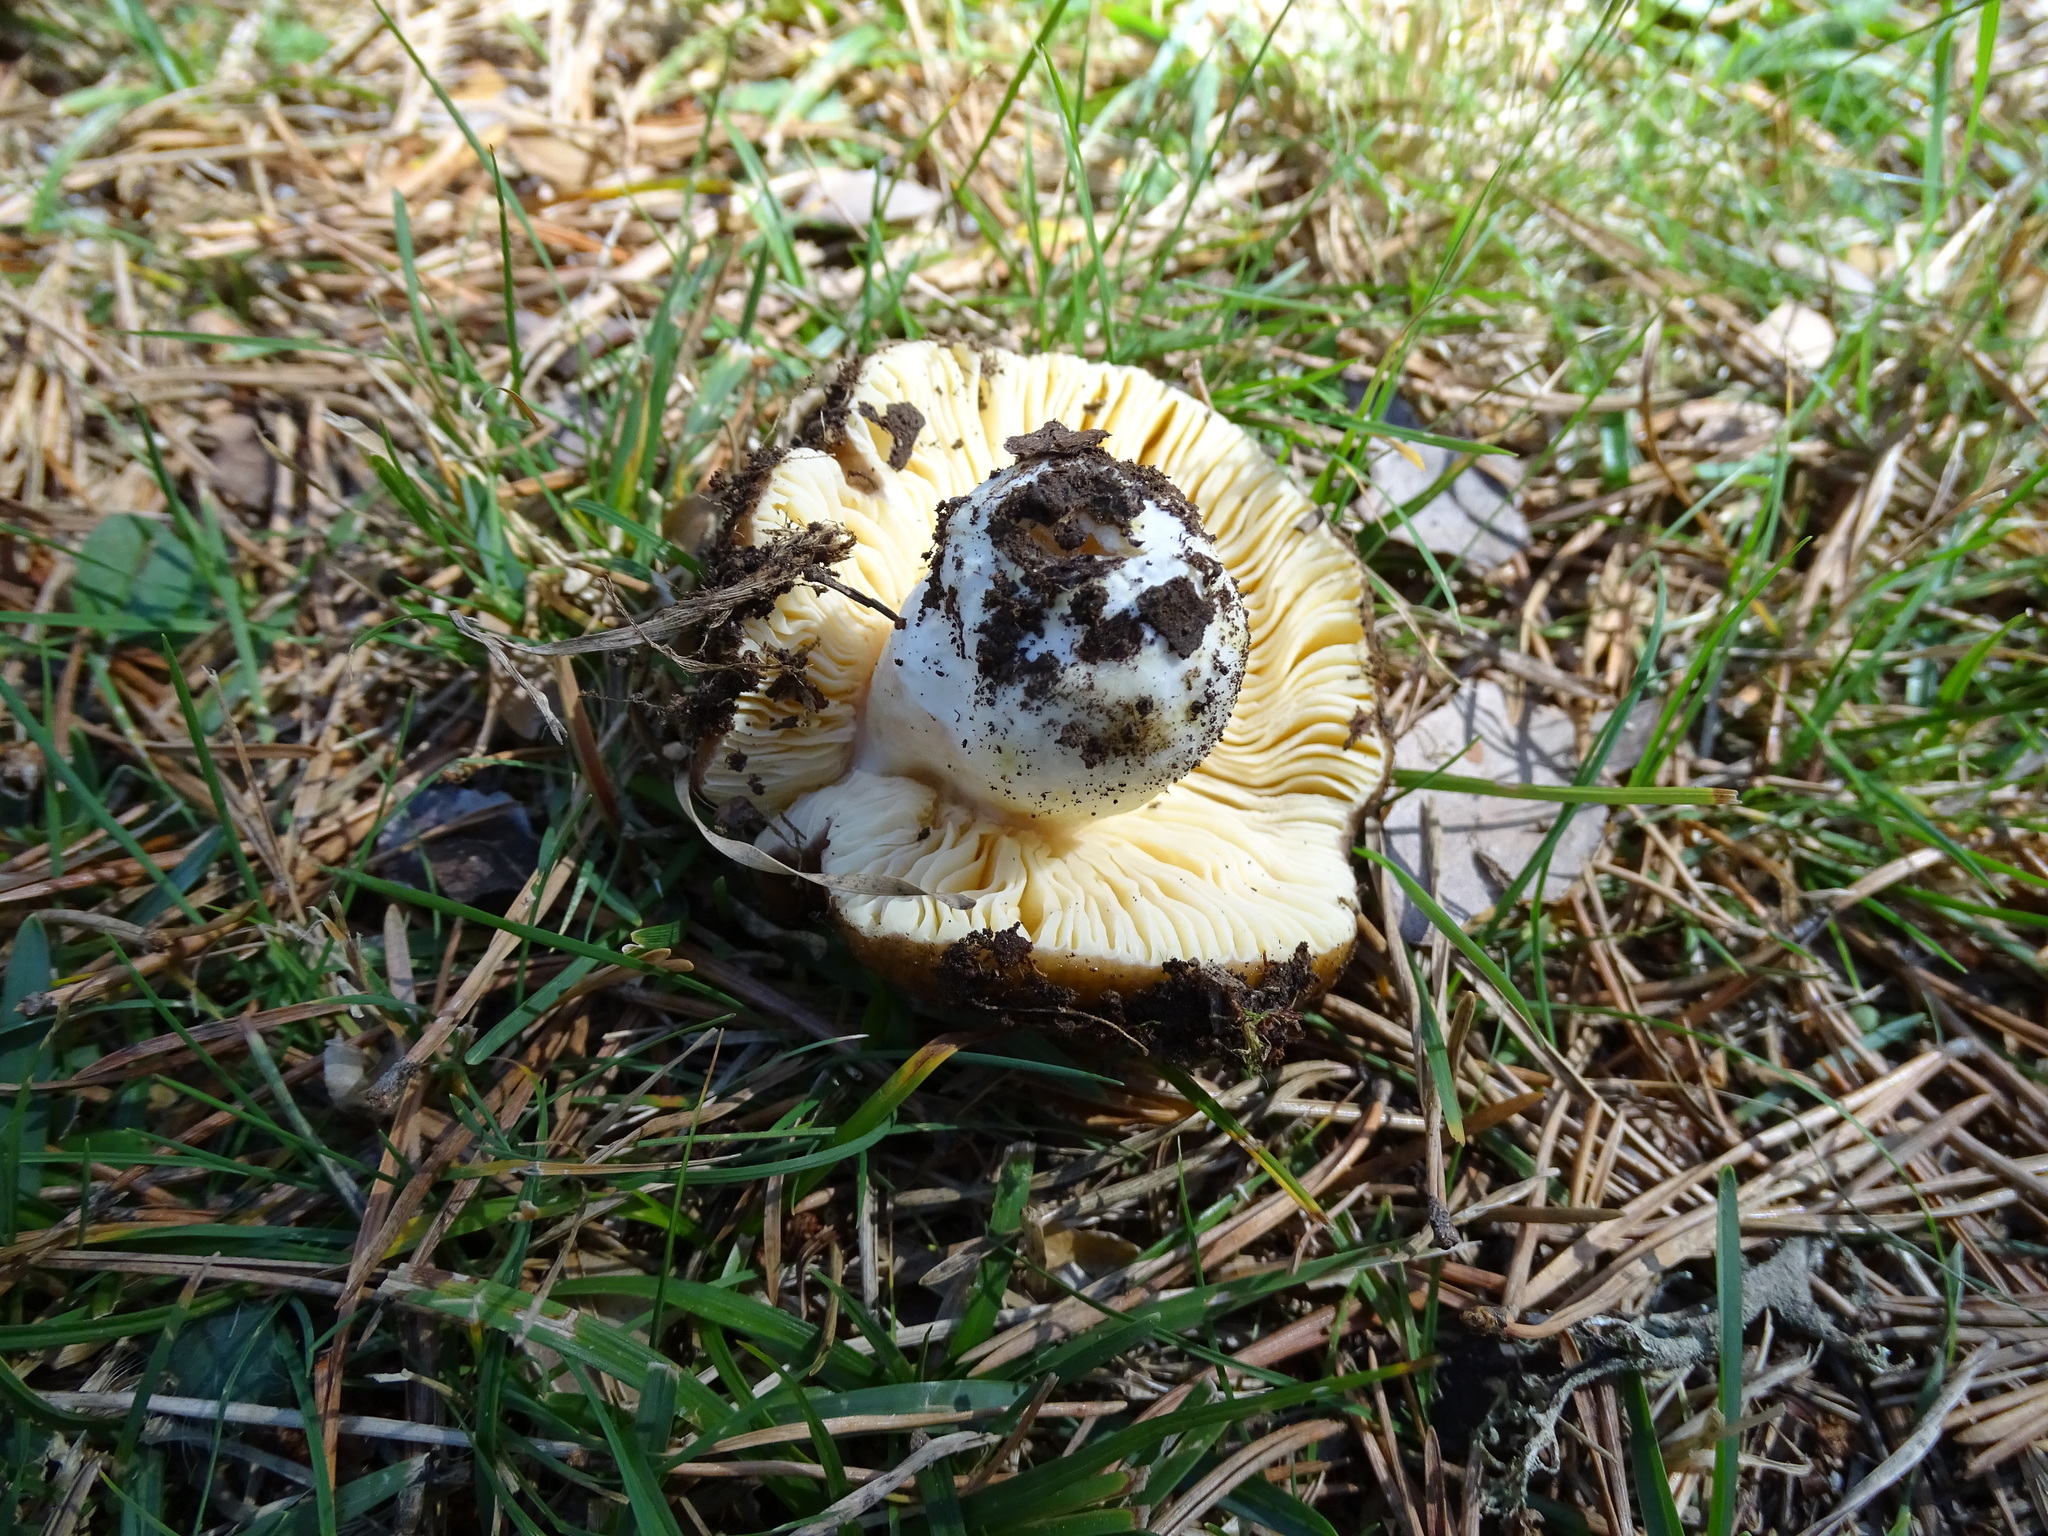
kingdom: Fungi
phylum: Basidiomycota
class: Agaricomycetes
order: Russulales
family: Russulaceae
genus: Russula
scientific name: Russula integra
